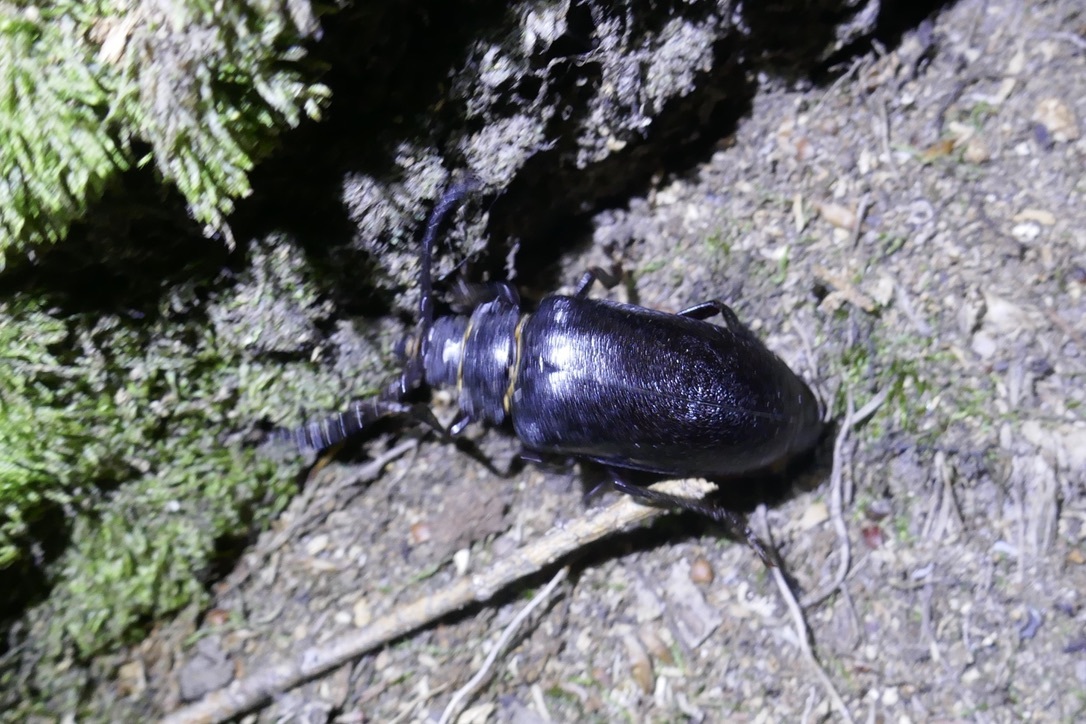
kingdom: Animalia
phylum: Arthropoda
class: Insecta
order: Coleoptera
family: Cerambycidae
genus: Prionus
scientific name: Prionus coriarius
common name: Tanner beetle
